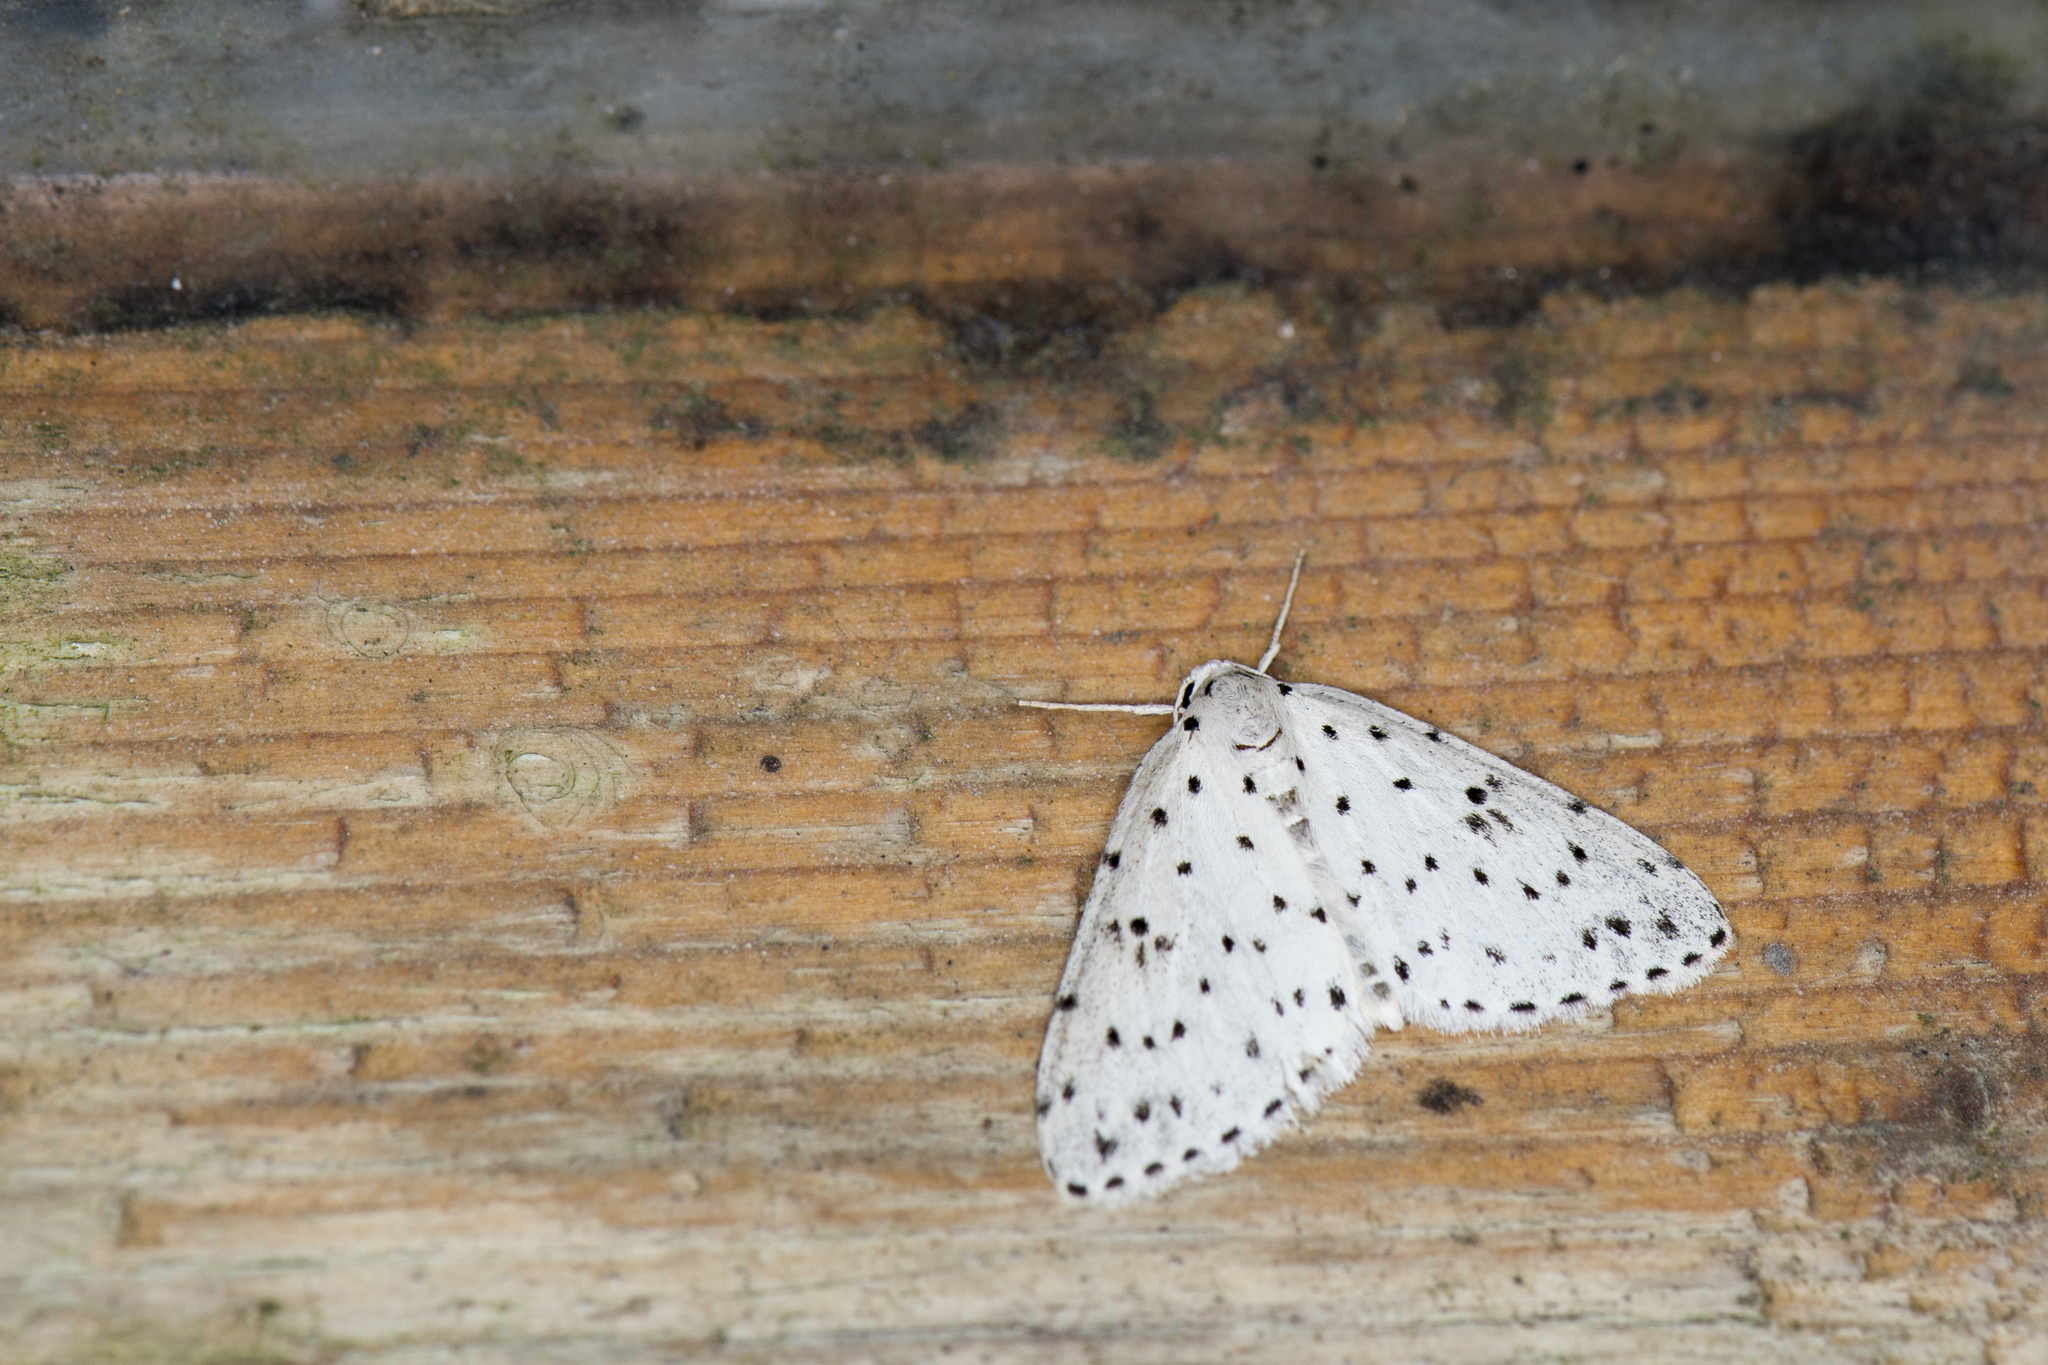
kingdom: Animalia
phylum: Arthropoda
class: Insecta
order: Lepidoptera
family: Geometridae
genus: Naxidia
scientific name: Naxidia punctata
